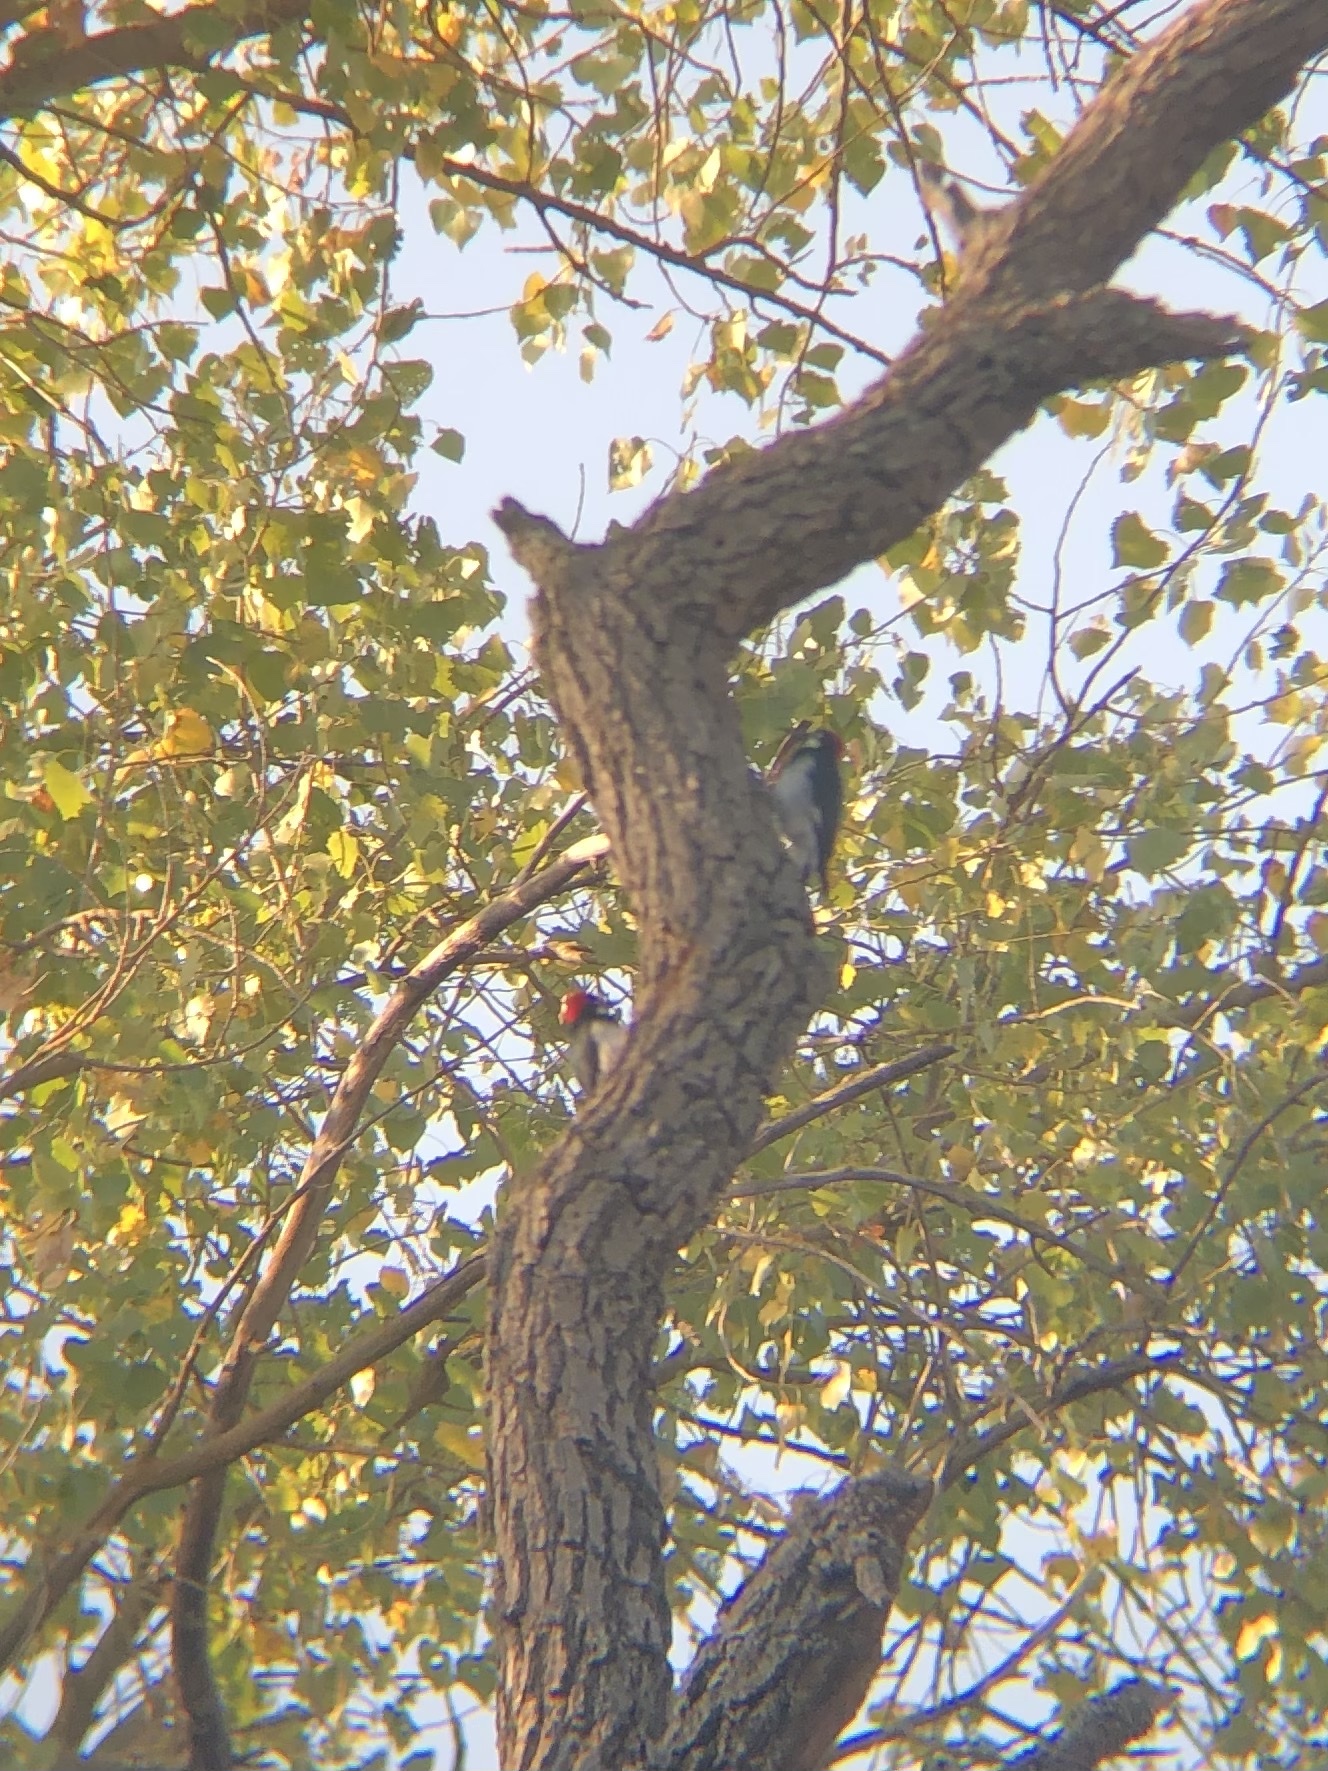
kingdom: Animalia
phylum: Chordata
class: Aves
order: Piciformes
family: Picidae
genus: Melanerpes
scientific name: Melanerpes formicivorus
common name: Acorn woodpecker
